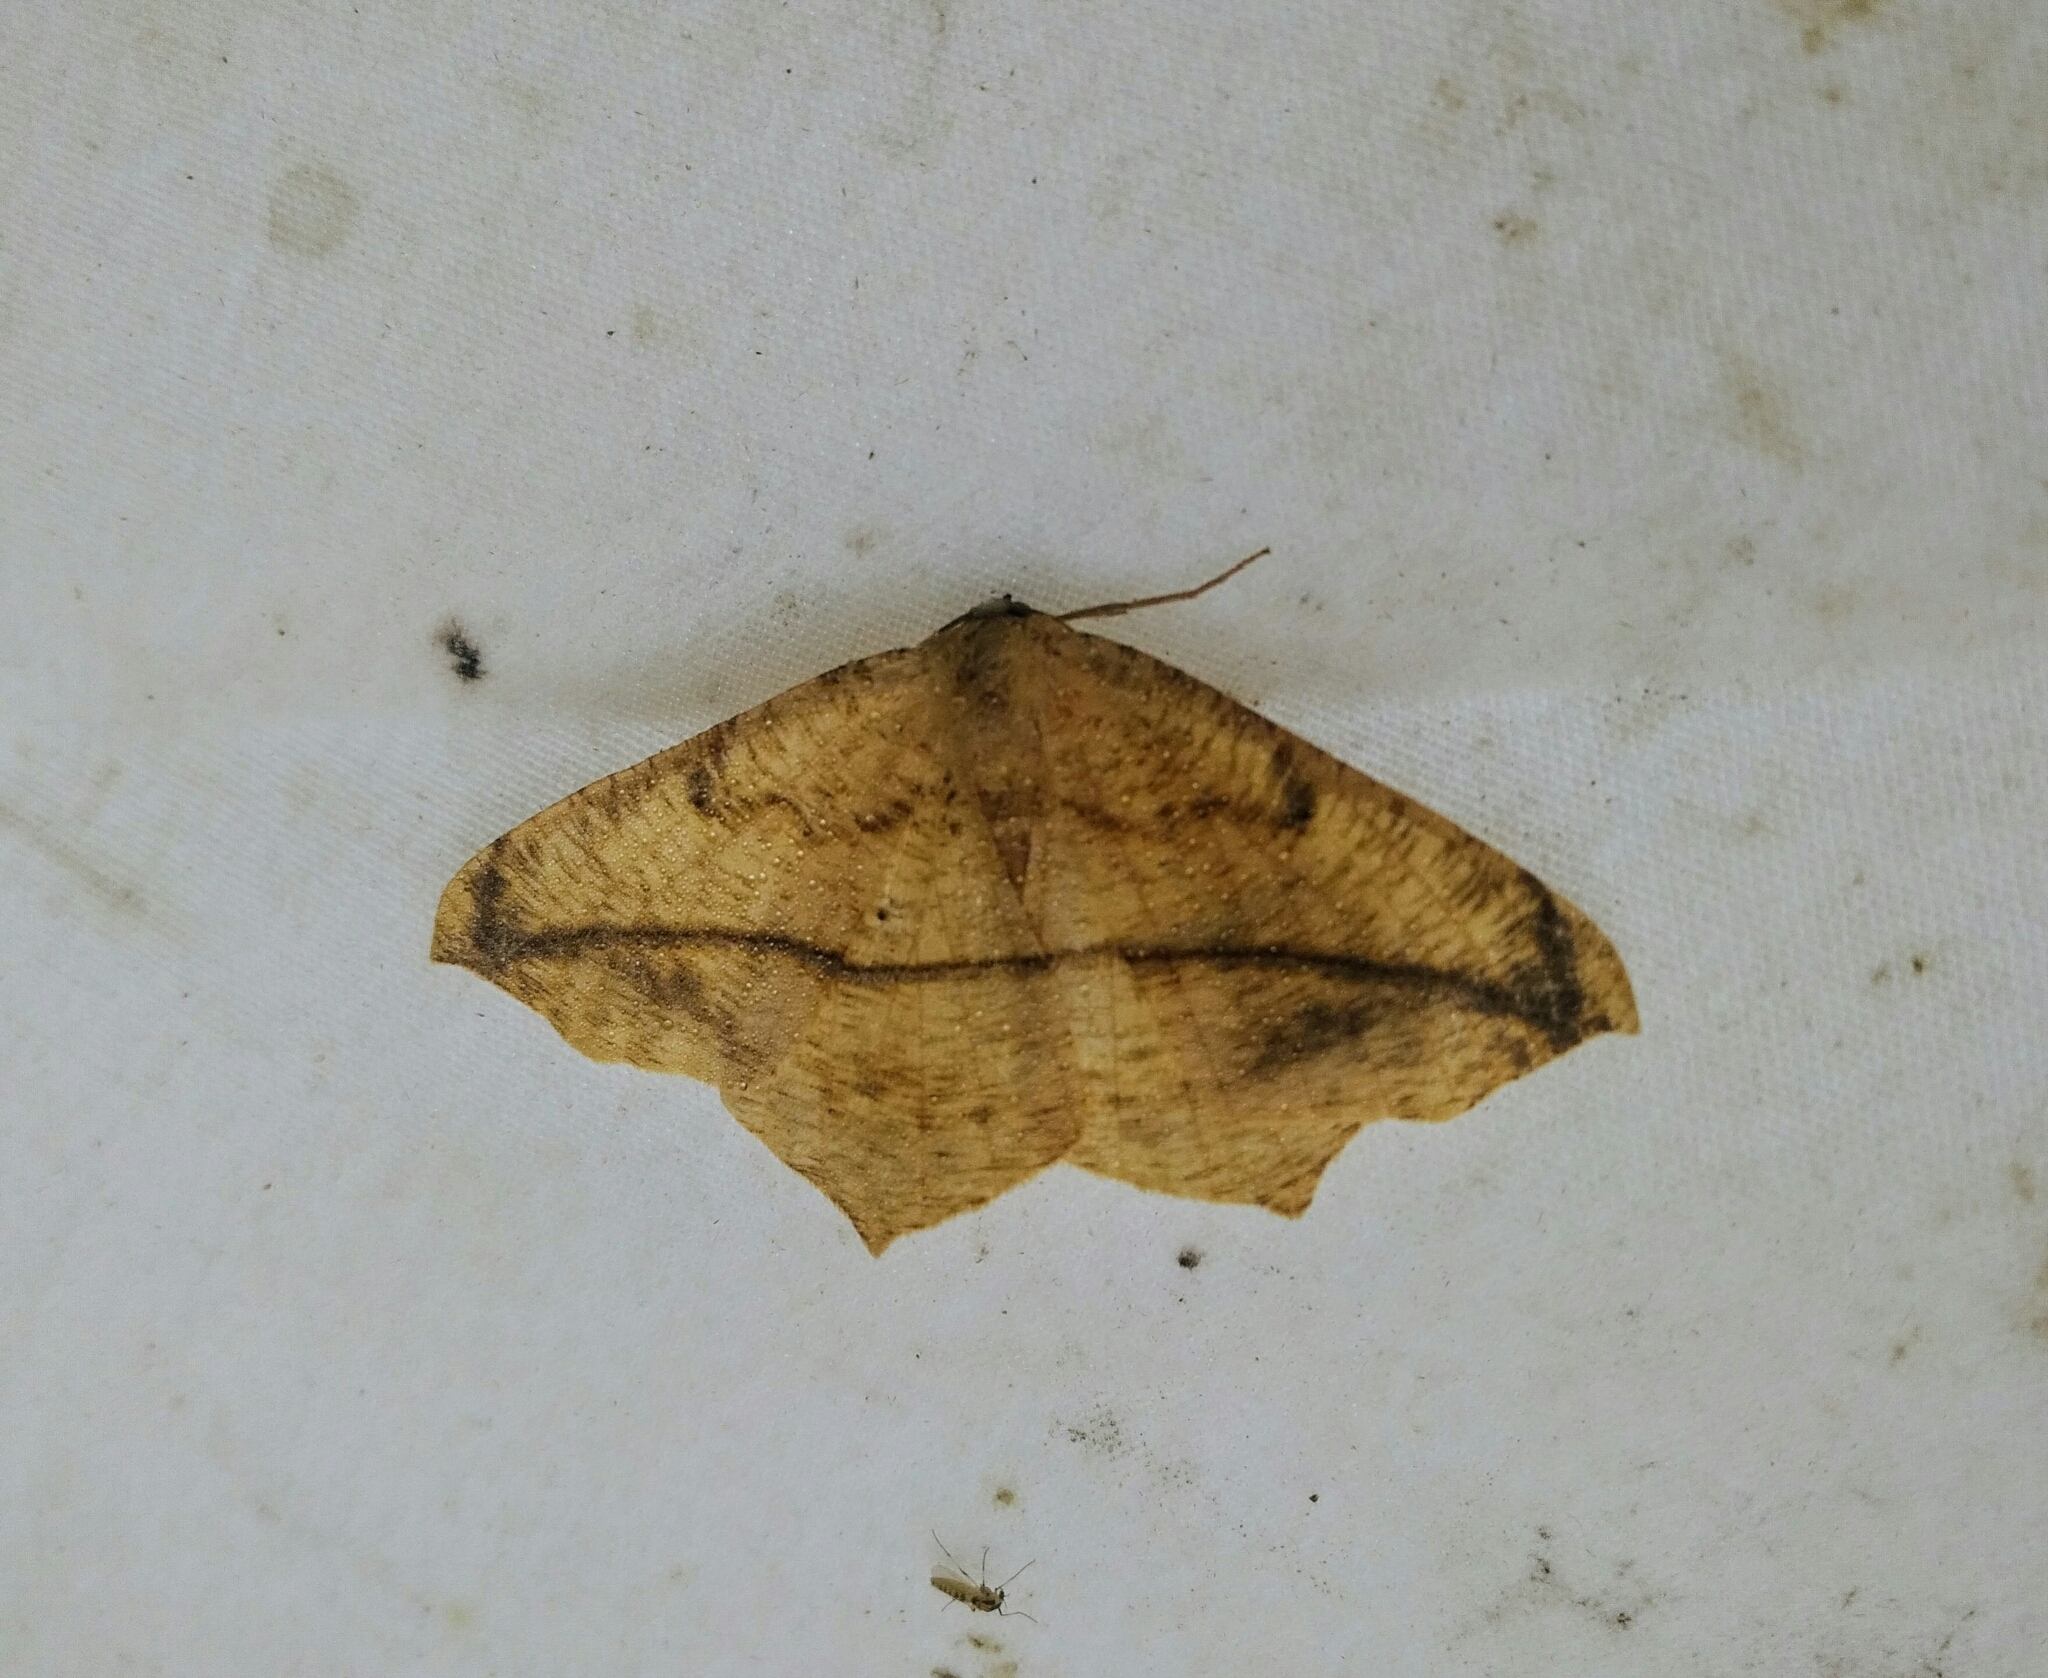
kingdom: Animalia
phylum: Arthropoda
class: Insecta
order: Lepidoptera
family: Geometridae
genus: Prochoerodes
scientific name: Prochoerodes lineola
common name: Large maple spanworm
